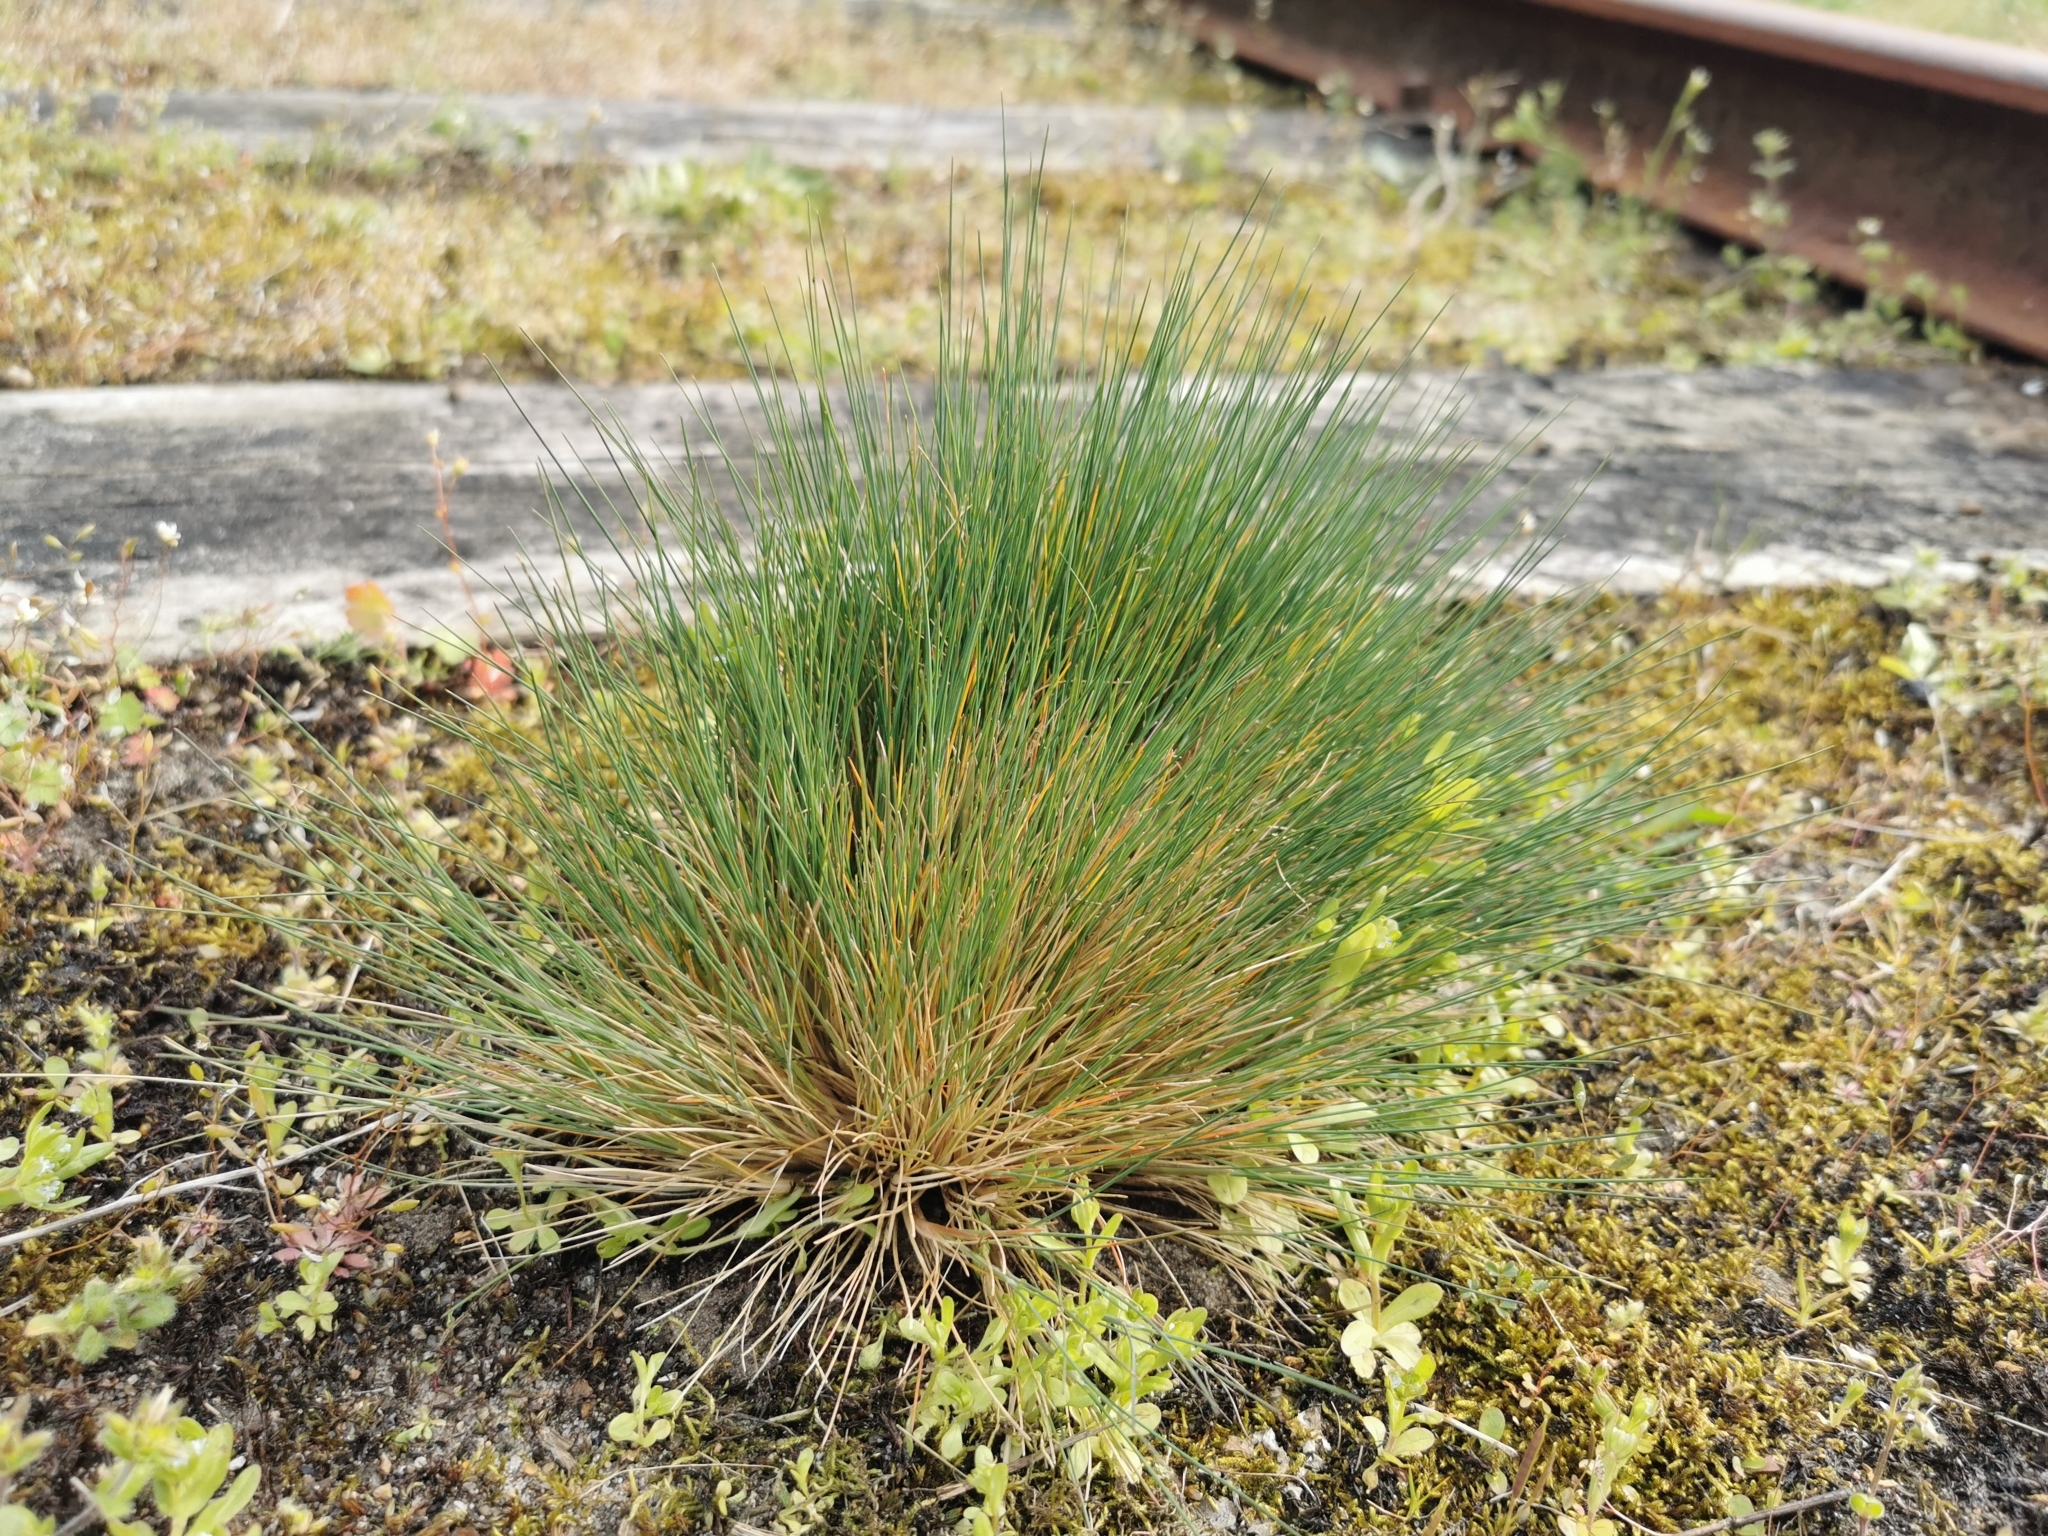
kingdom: Plantae
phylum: Tracheophyta
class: Liliopsida
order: Poales
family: Poaceae
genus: Corynephorus
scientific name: Corynephorus canescens
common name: Grey hair-grass
